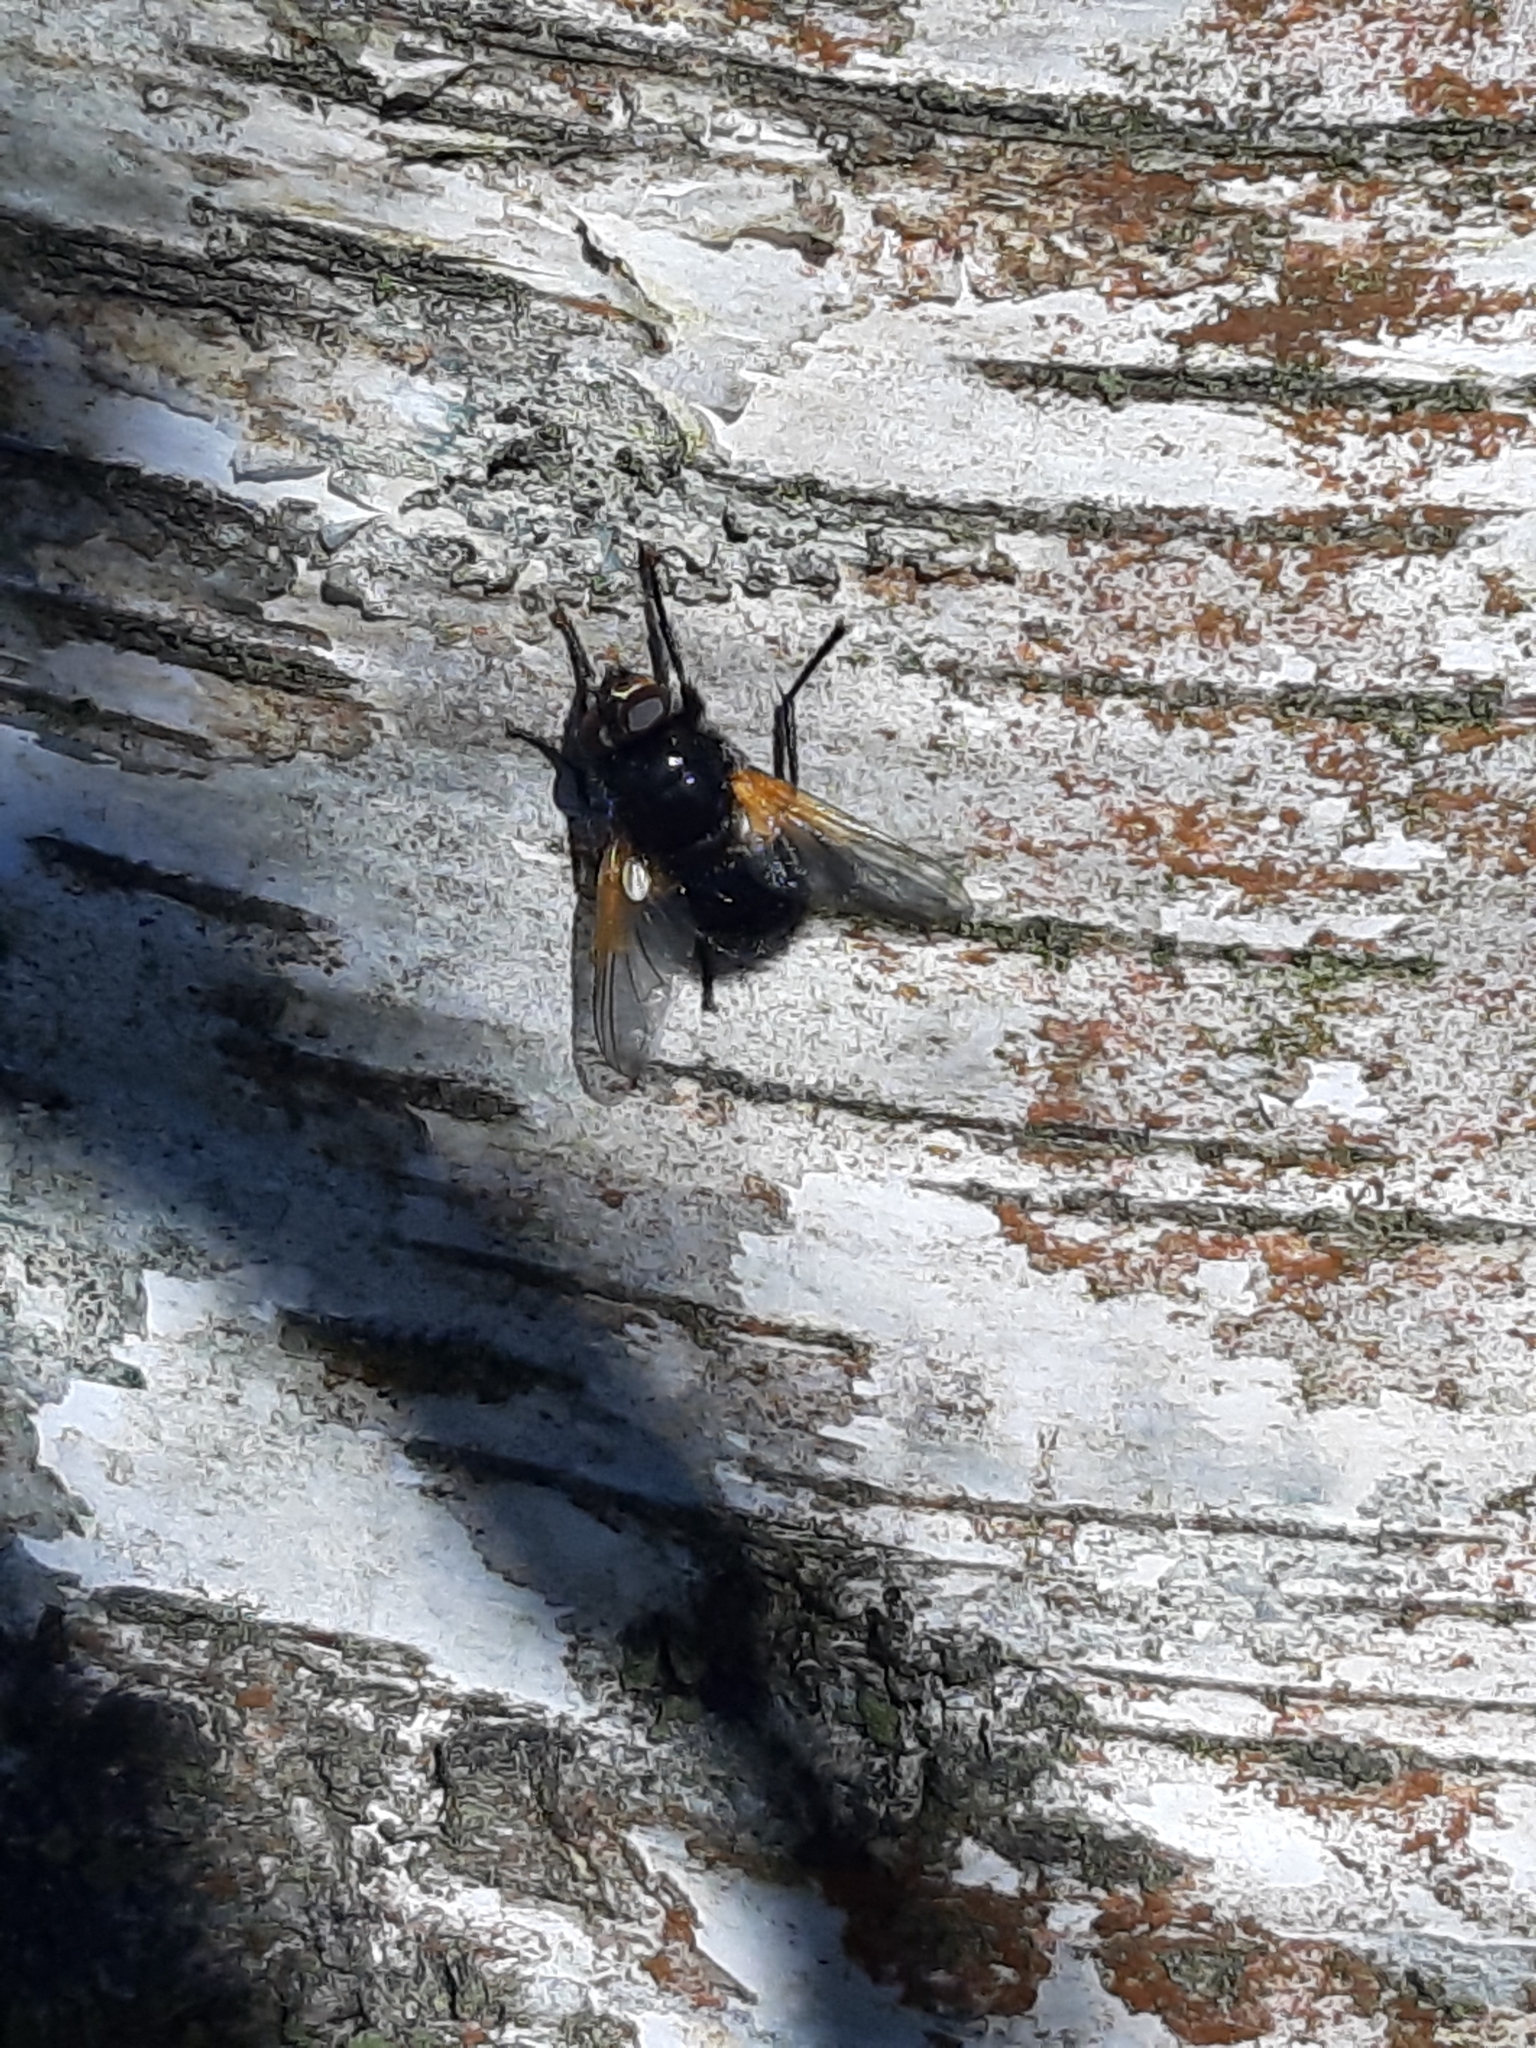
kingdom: Animalia
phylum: Arthropoda
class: Insecta
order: Diptera
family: Muscidae
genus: Mesembrina
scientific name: Mesembrina meridiana
